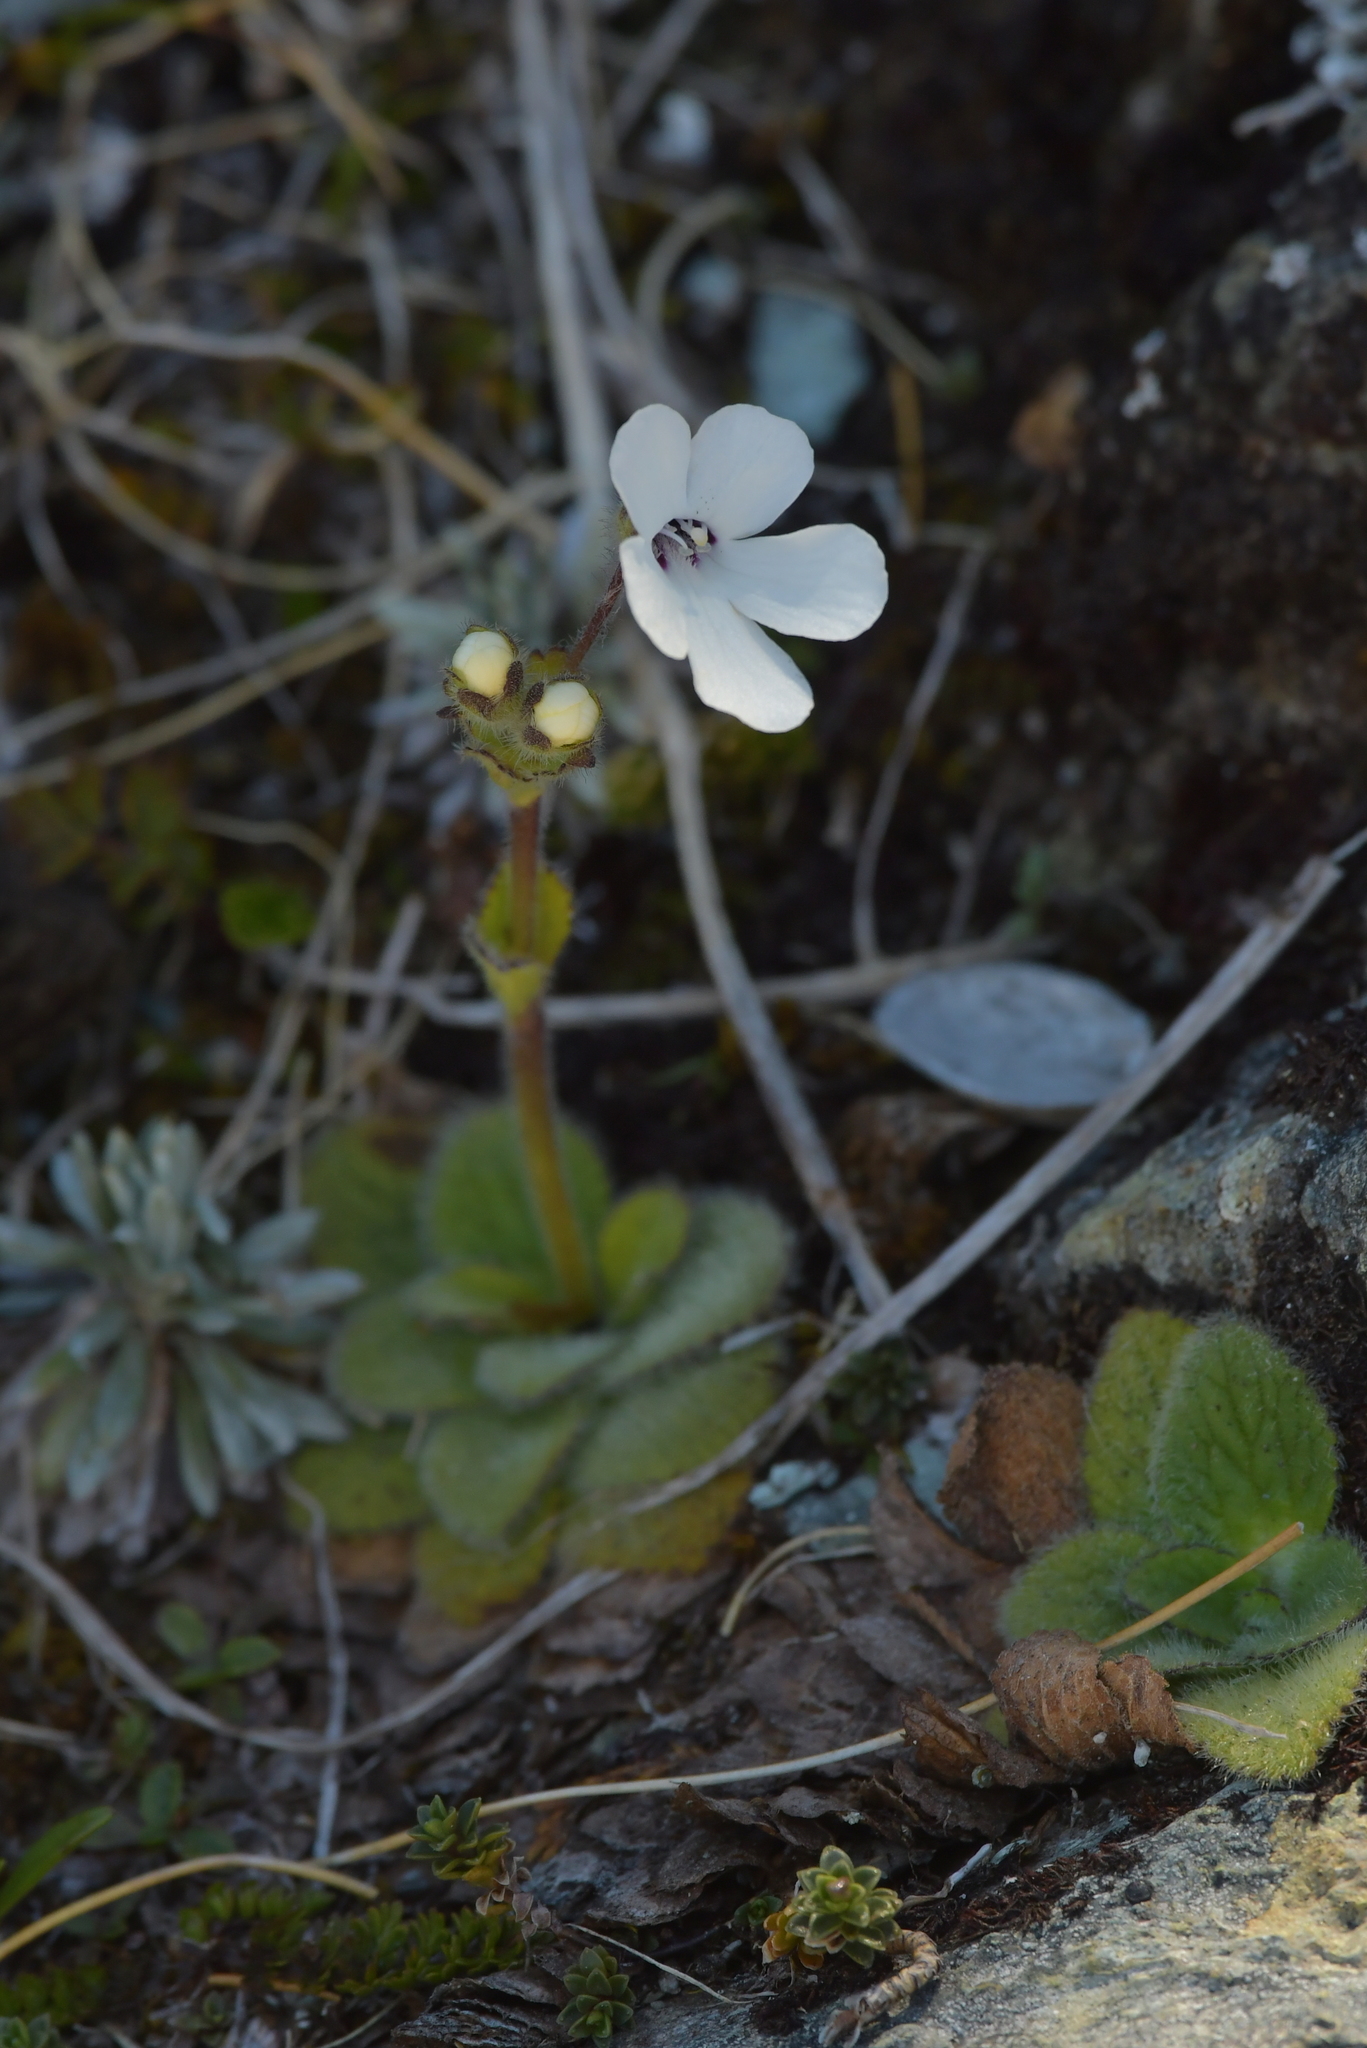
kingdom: Plantae
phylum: Tracheophyta
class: Magnoliopsida
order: Lamiales
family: Plantaginaceae
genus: Ourisia
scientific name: Ourisia remotifolia
